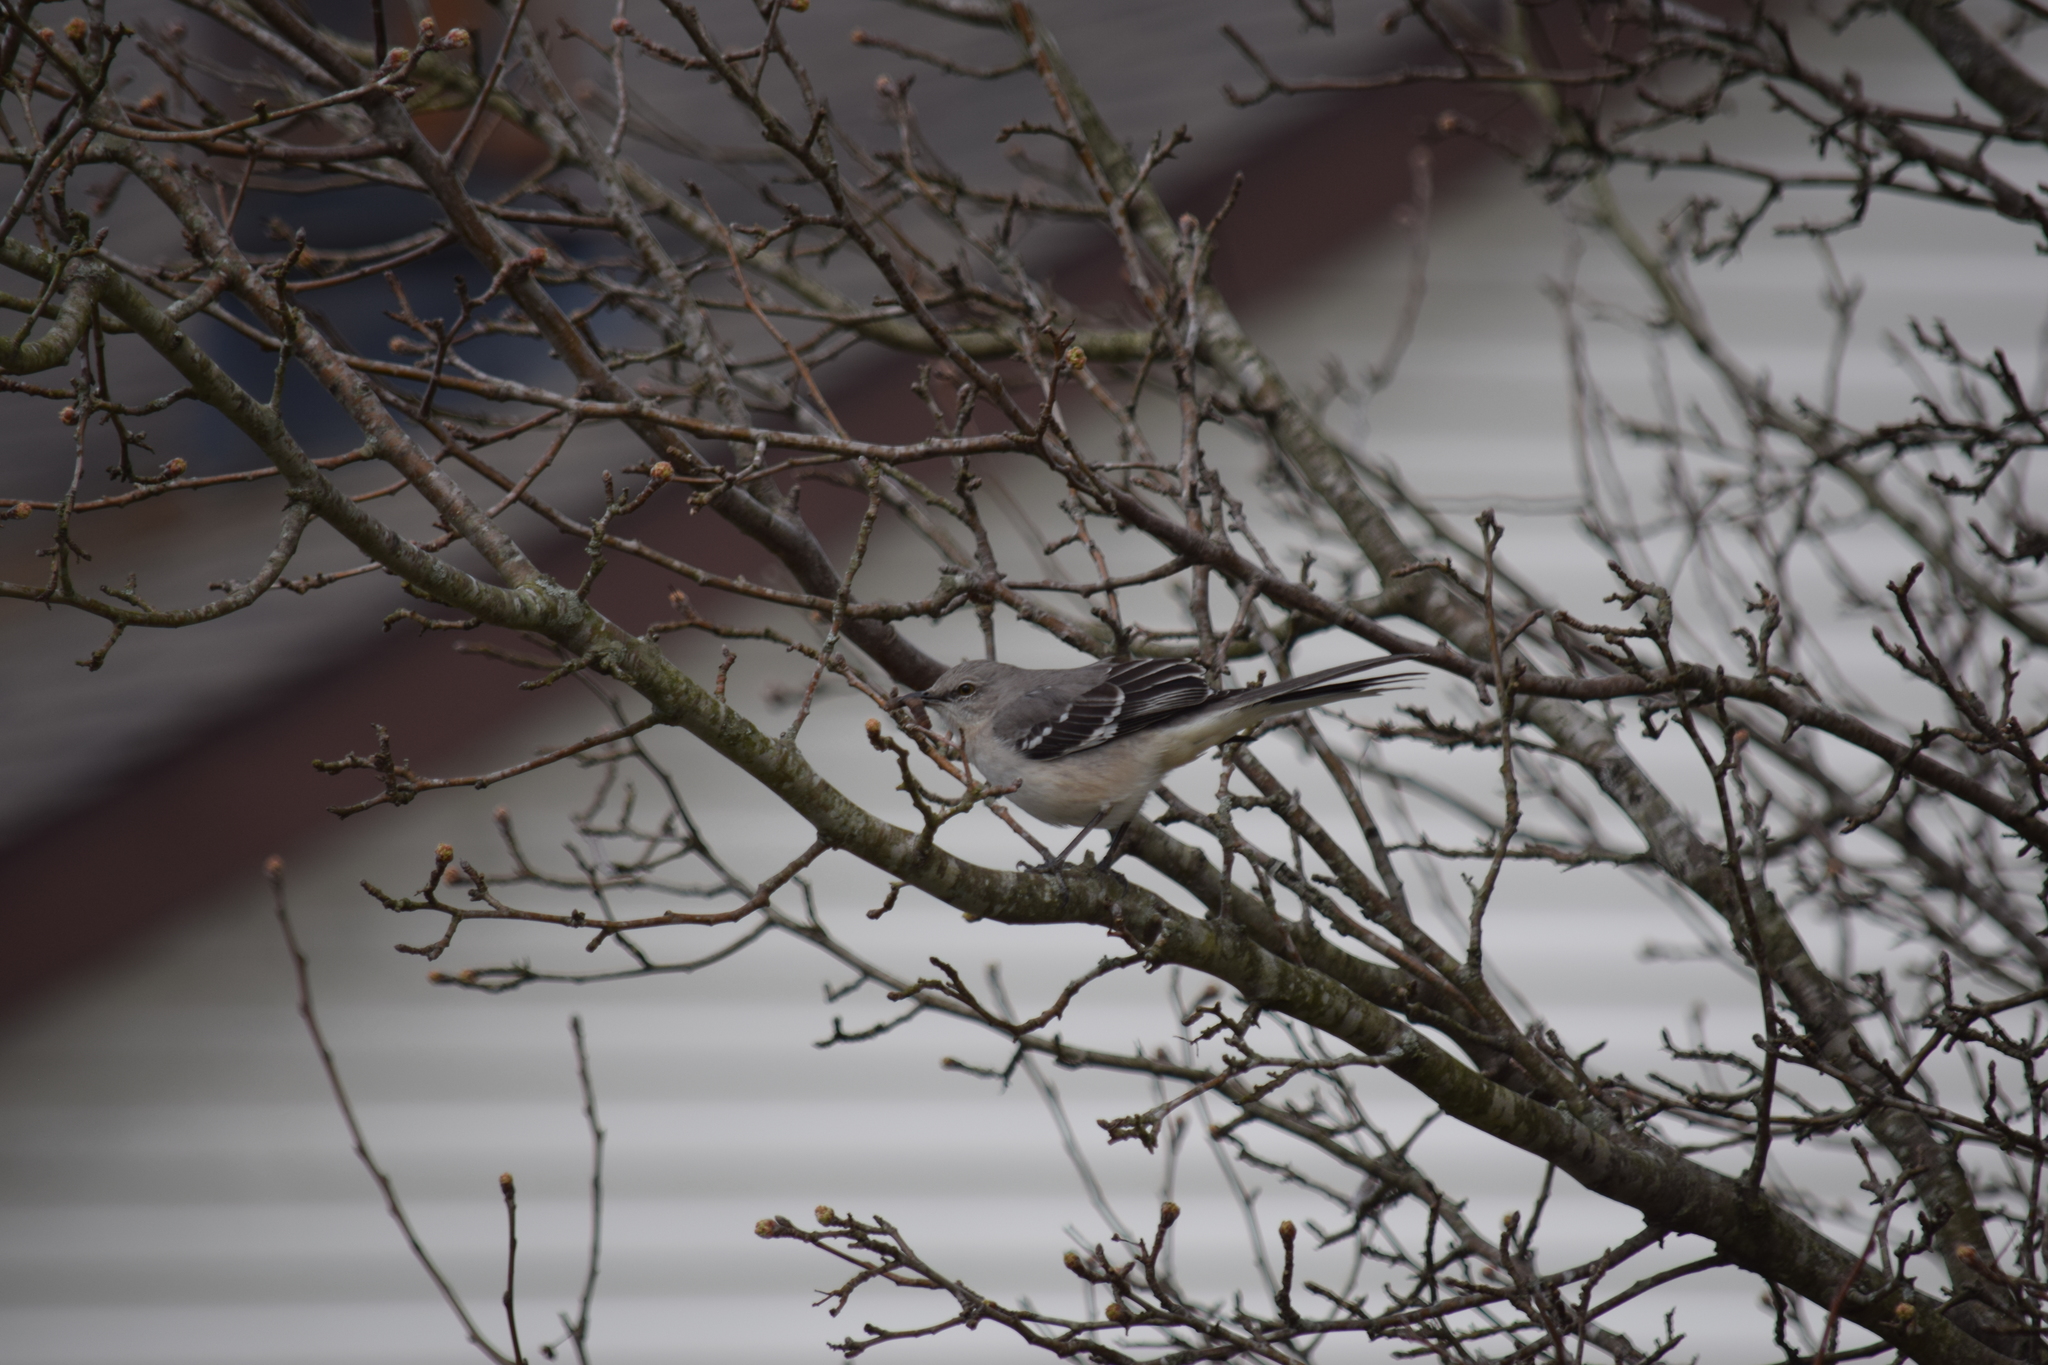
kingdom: Animalia
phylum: Chordata
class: Aves
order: Passeriformes
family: Mimidae
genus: Mimus
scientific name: Mimus polyglottos
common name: Northern mockingbird
